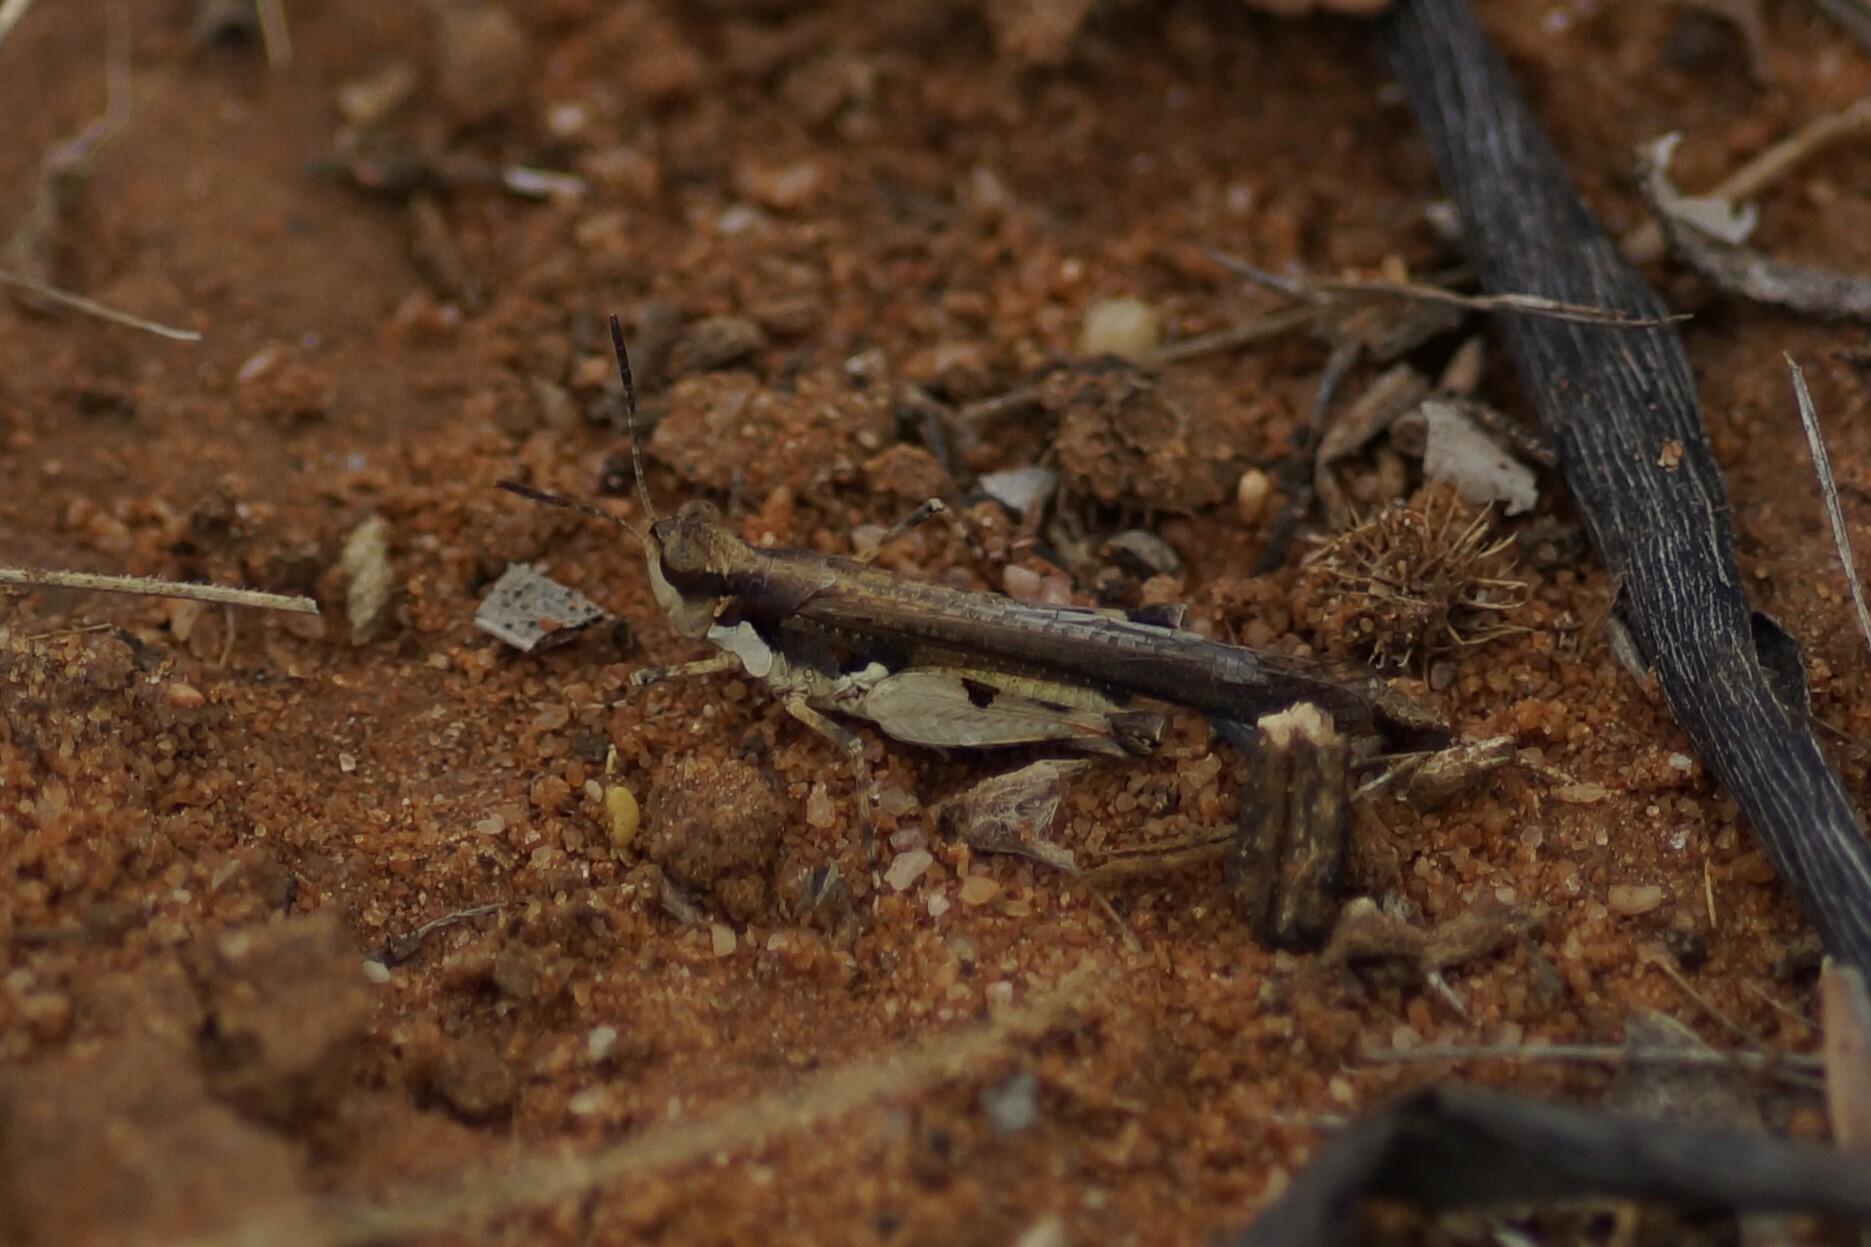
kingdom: Animalia
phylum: Arthropoda
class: Insecta
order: Orthoptera
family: Acrididae
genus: Pycnostictus
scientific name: Pycnostictus seriatus
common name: Common bandwing
